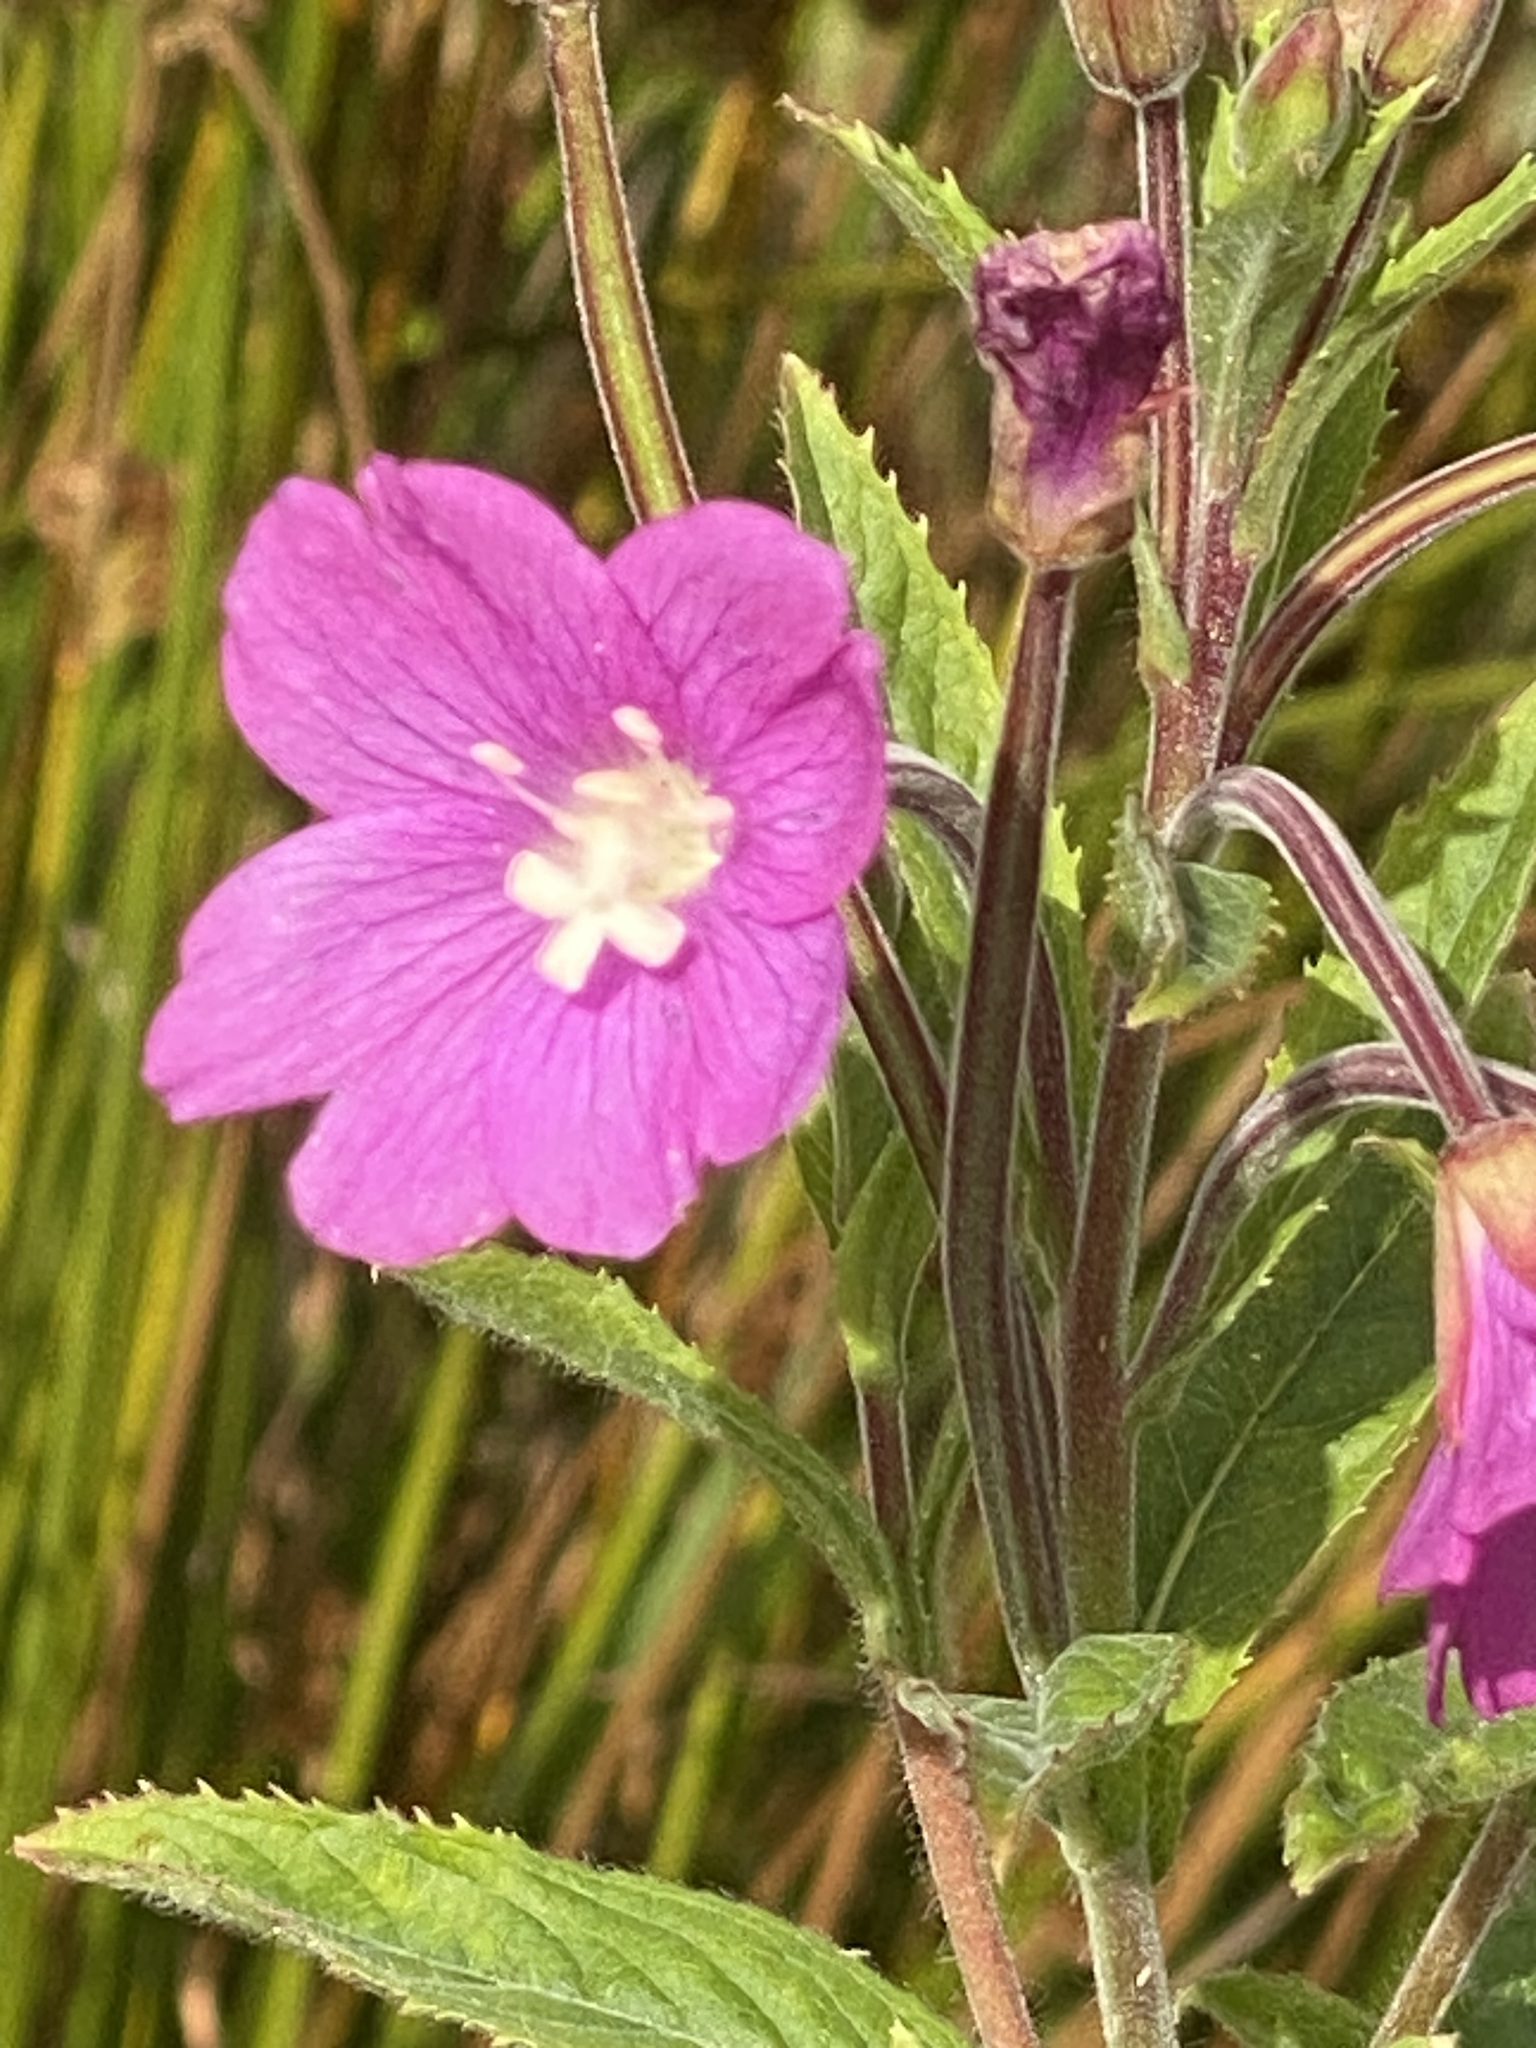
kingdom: Plantae
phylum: Tracheophyta
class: Magnoliopsida
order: Myrtales
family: Onagraceae
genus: Epilobium
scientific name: Epilobium hirsutum
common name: Great willowherb
